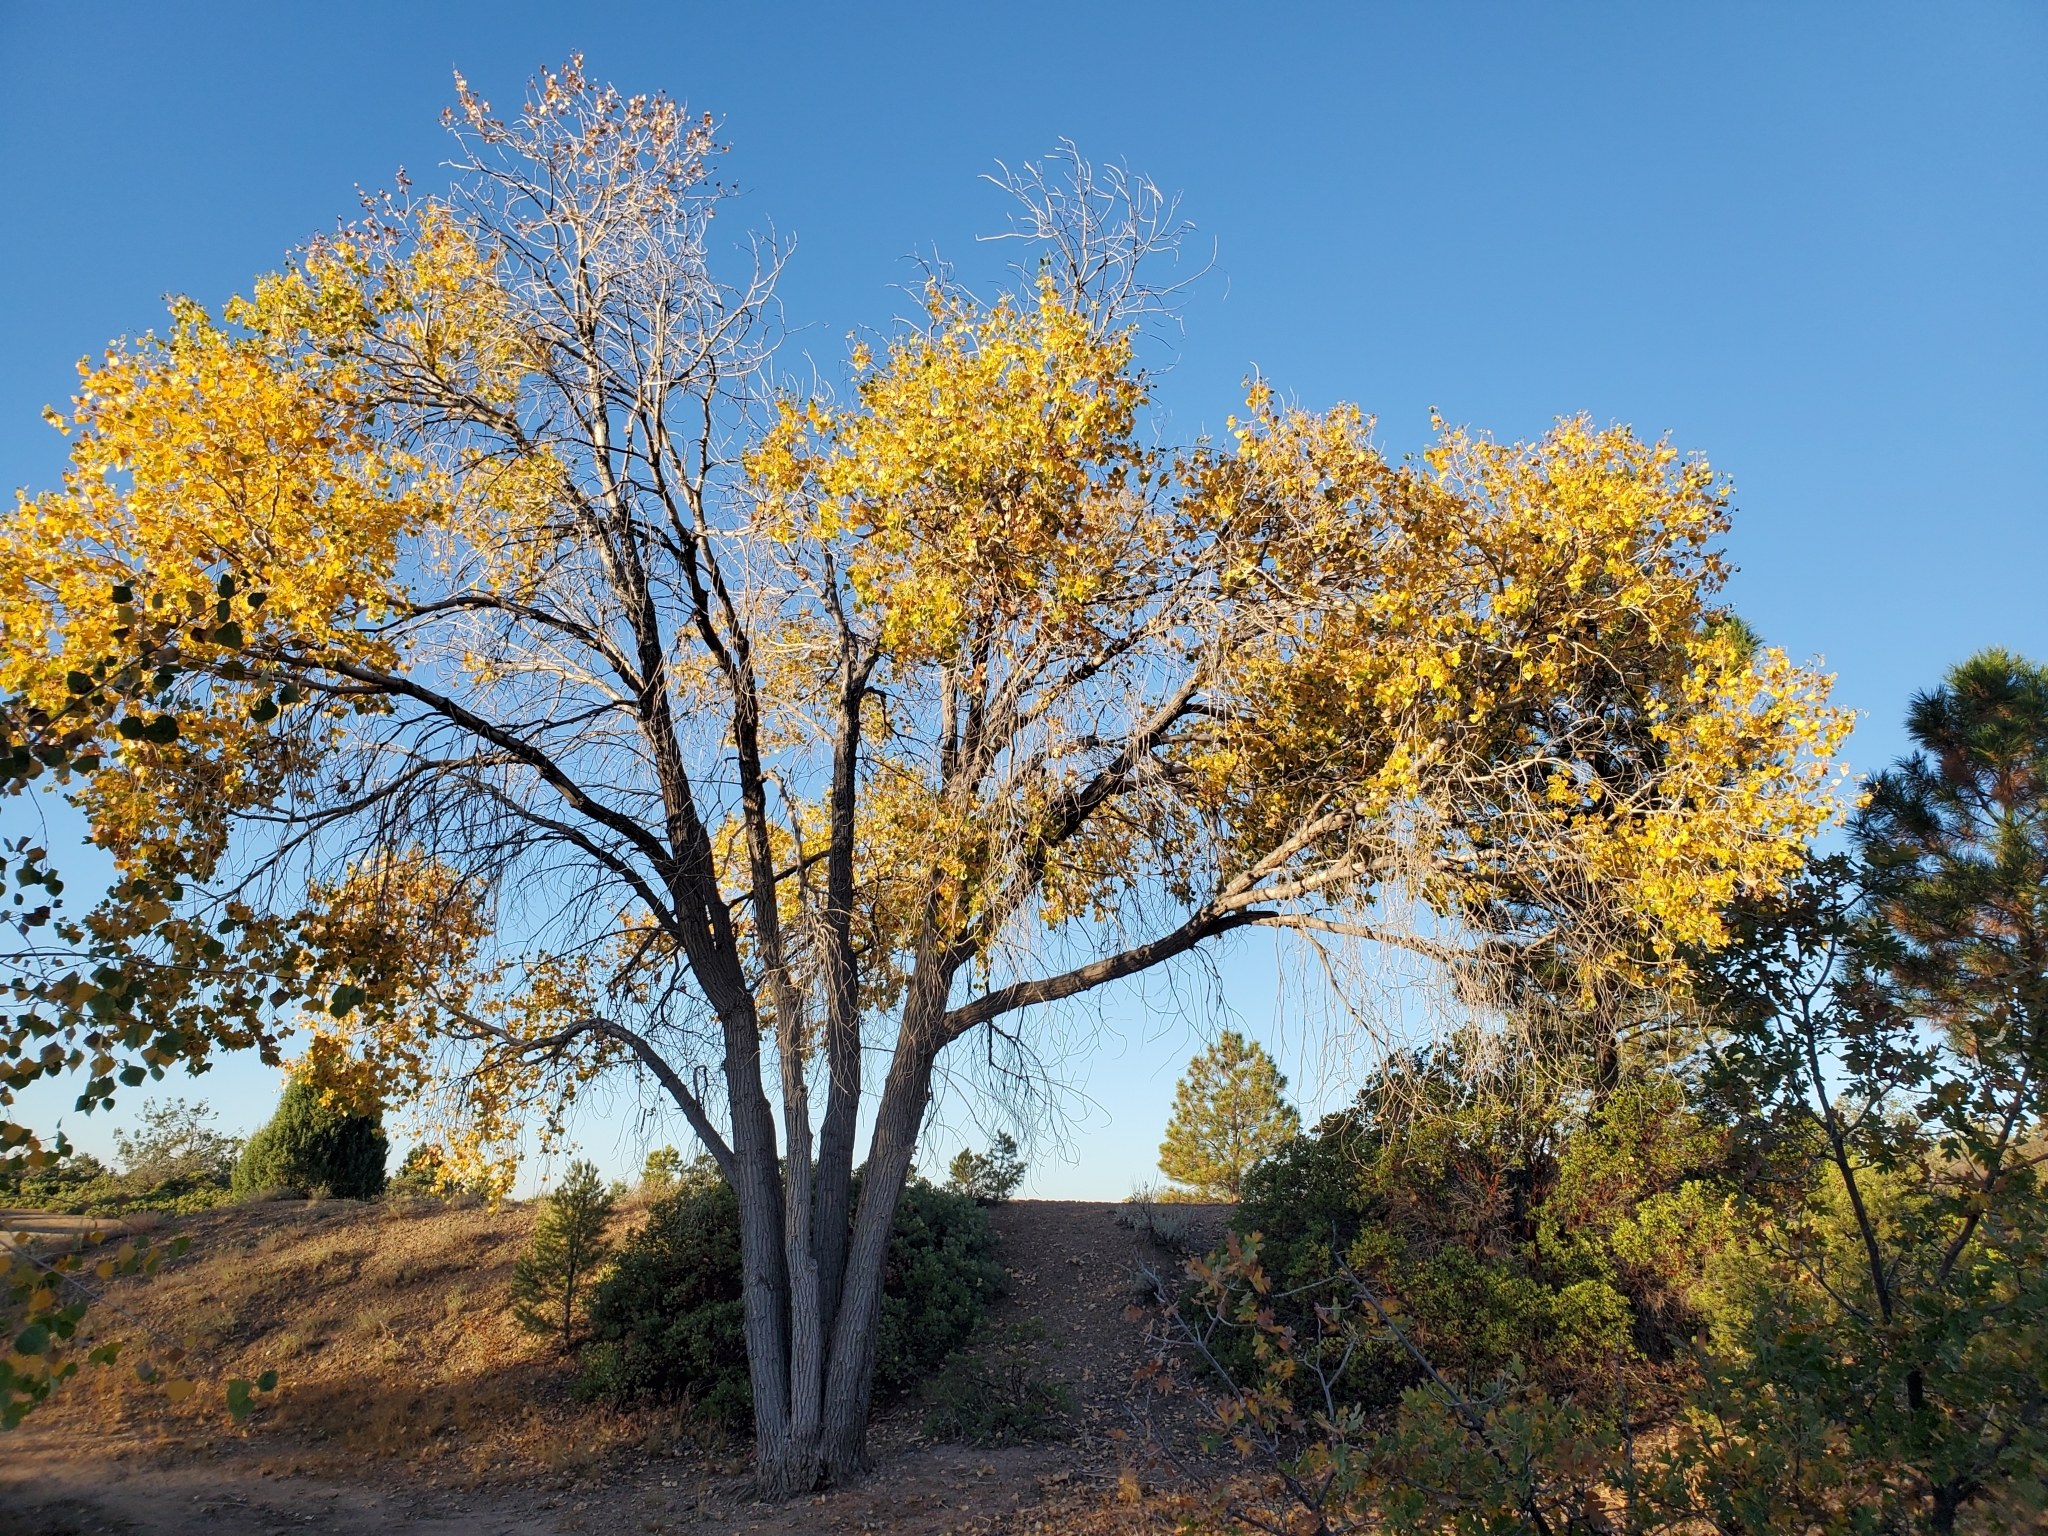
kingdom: Plantae
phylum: Tracheophyta
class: Magnoliopsida
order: Malpighiales
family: Salicaceae
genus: Populus
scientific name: Populus fremontii
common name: Fremont's cottonwood
